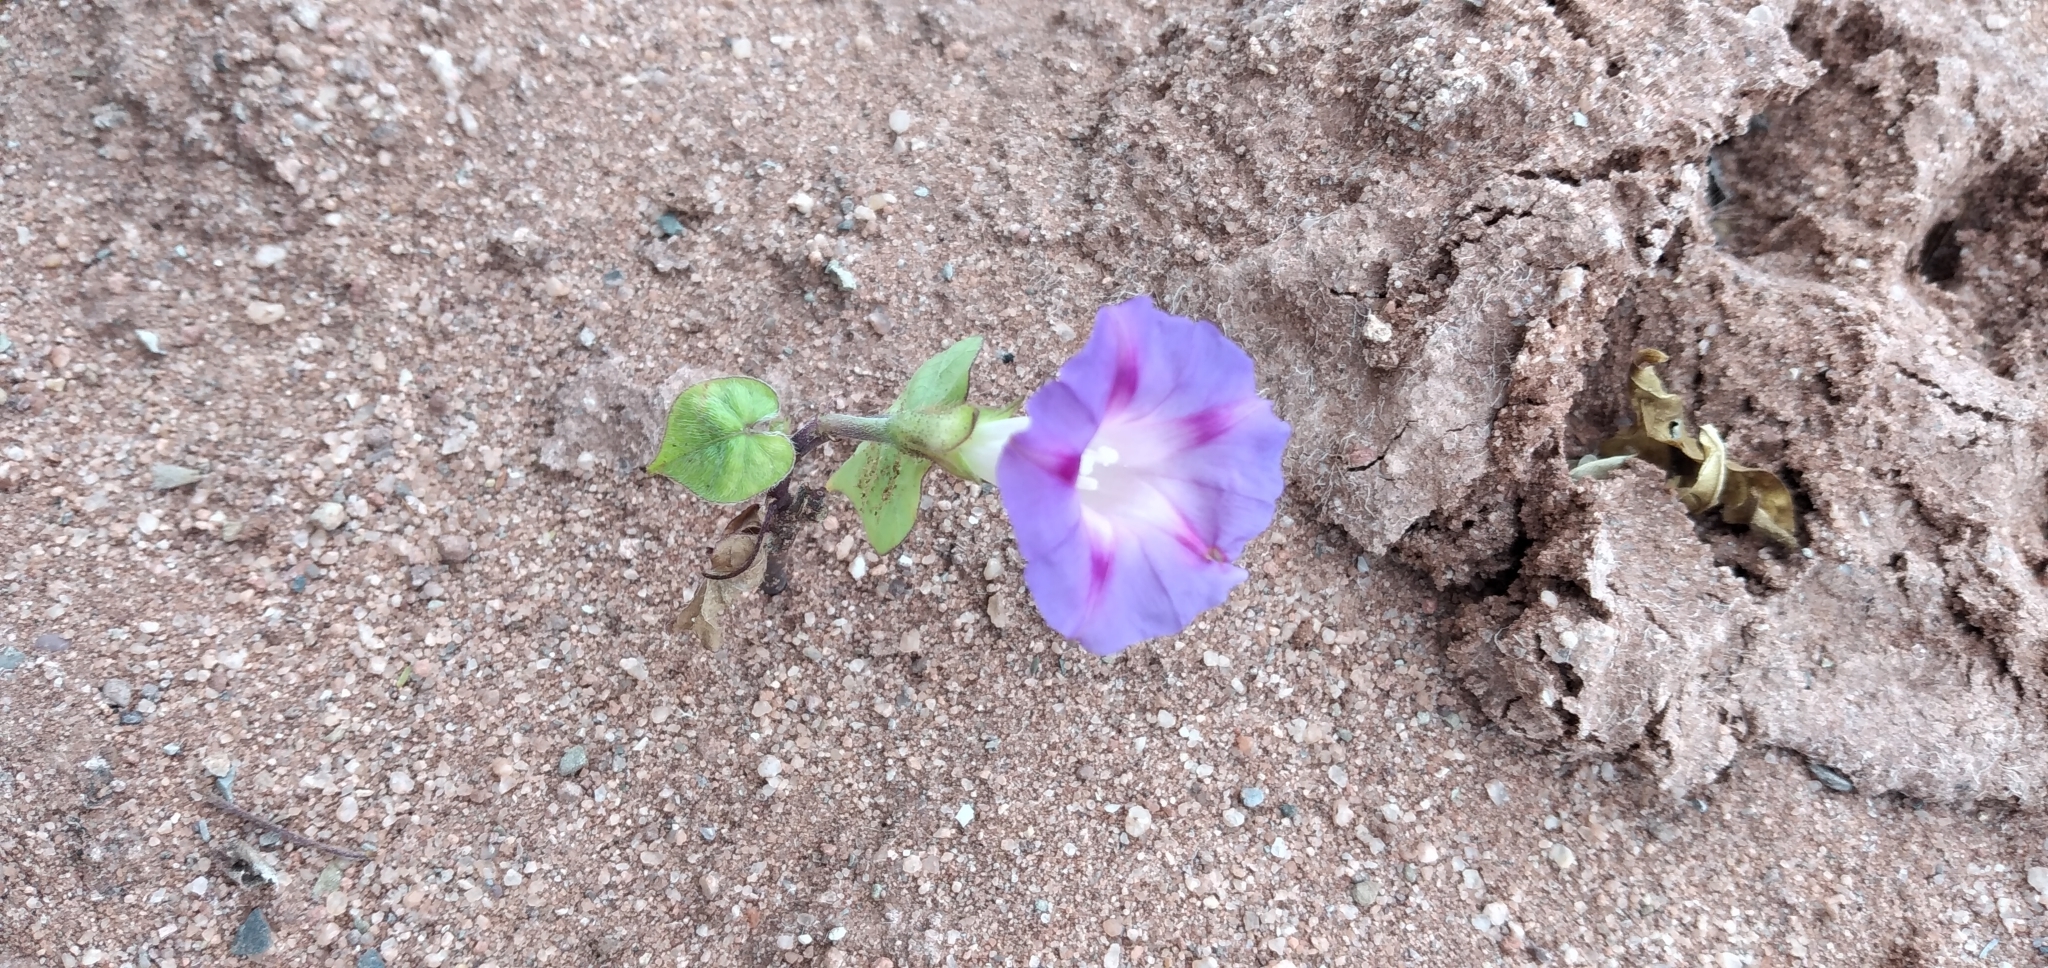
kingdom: Plantae
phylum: Tracheophyta
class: Magnoliopsida
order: Solanales
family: Convolvulaceae
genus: Ipomoea
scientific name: Ipomoea purpurea
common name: Common morning-glory
